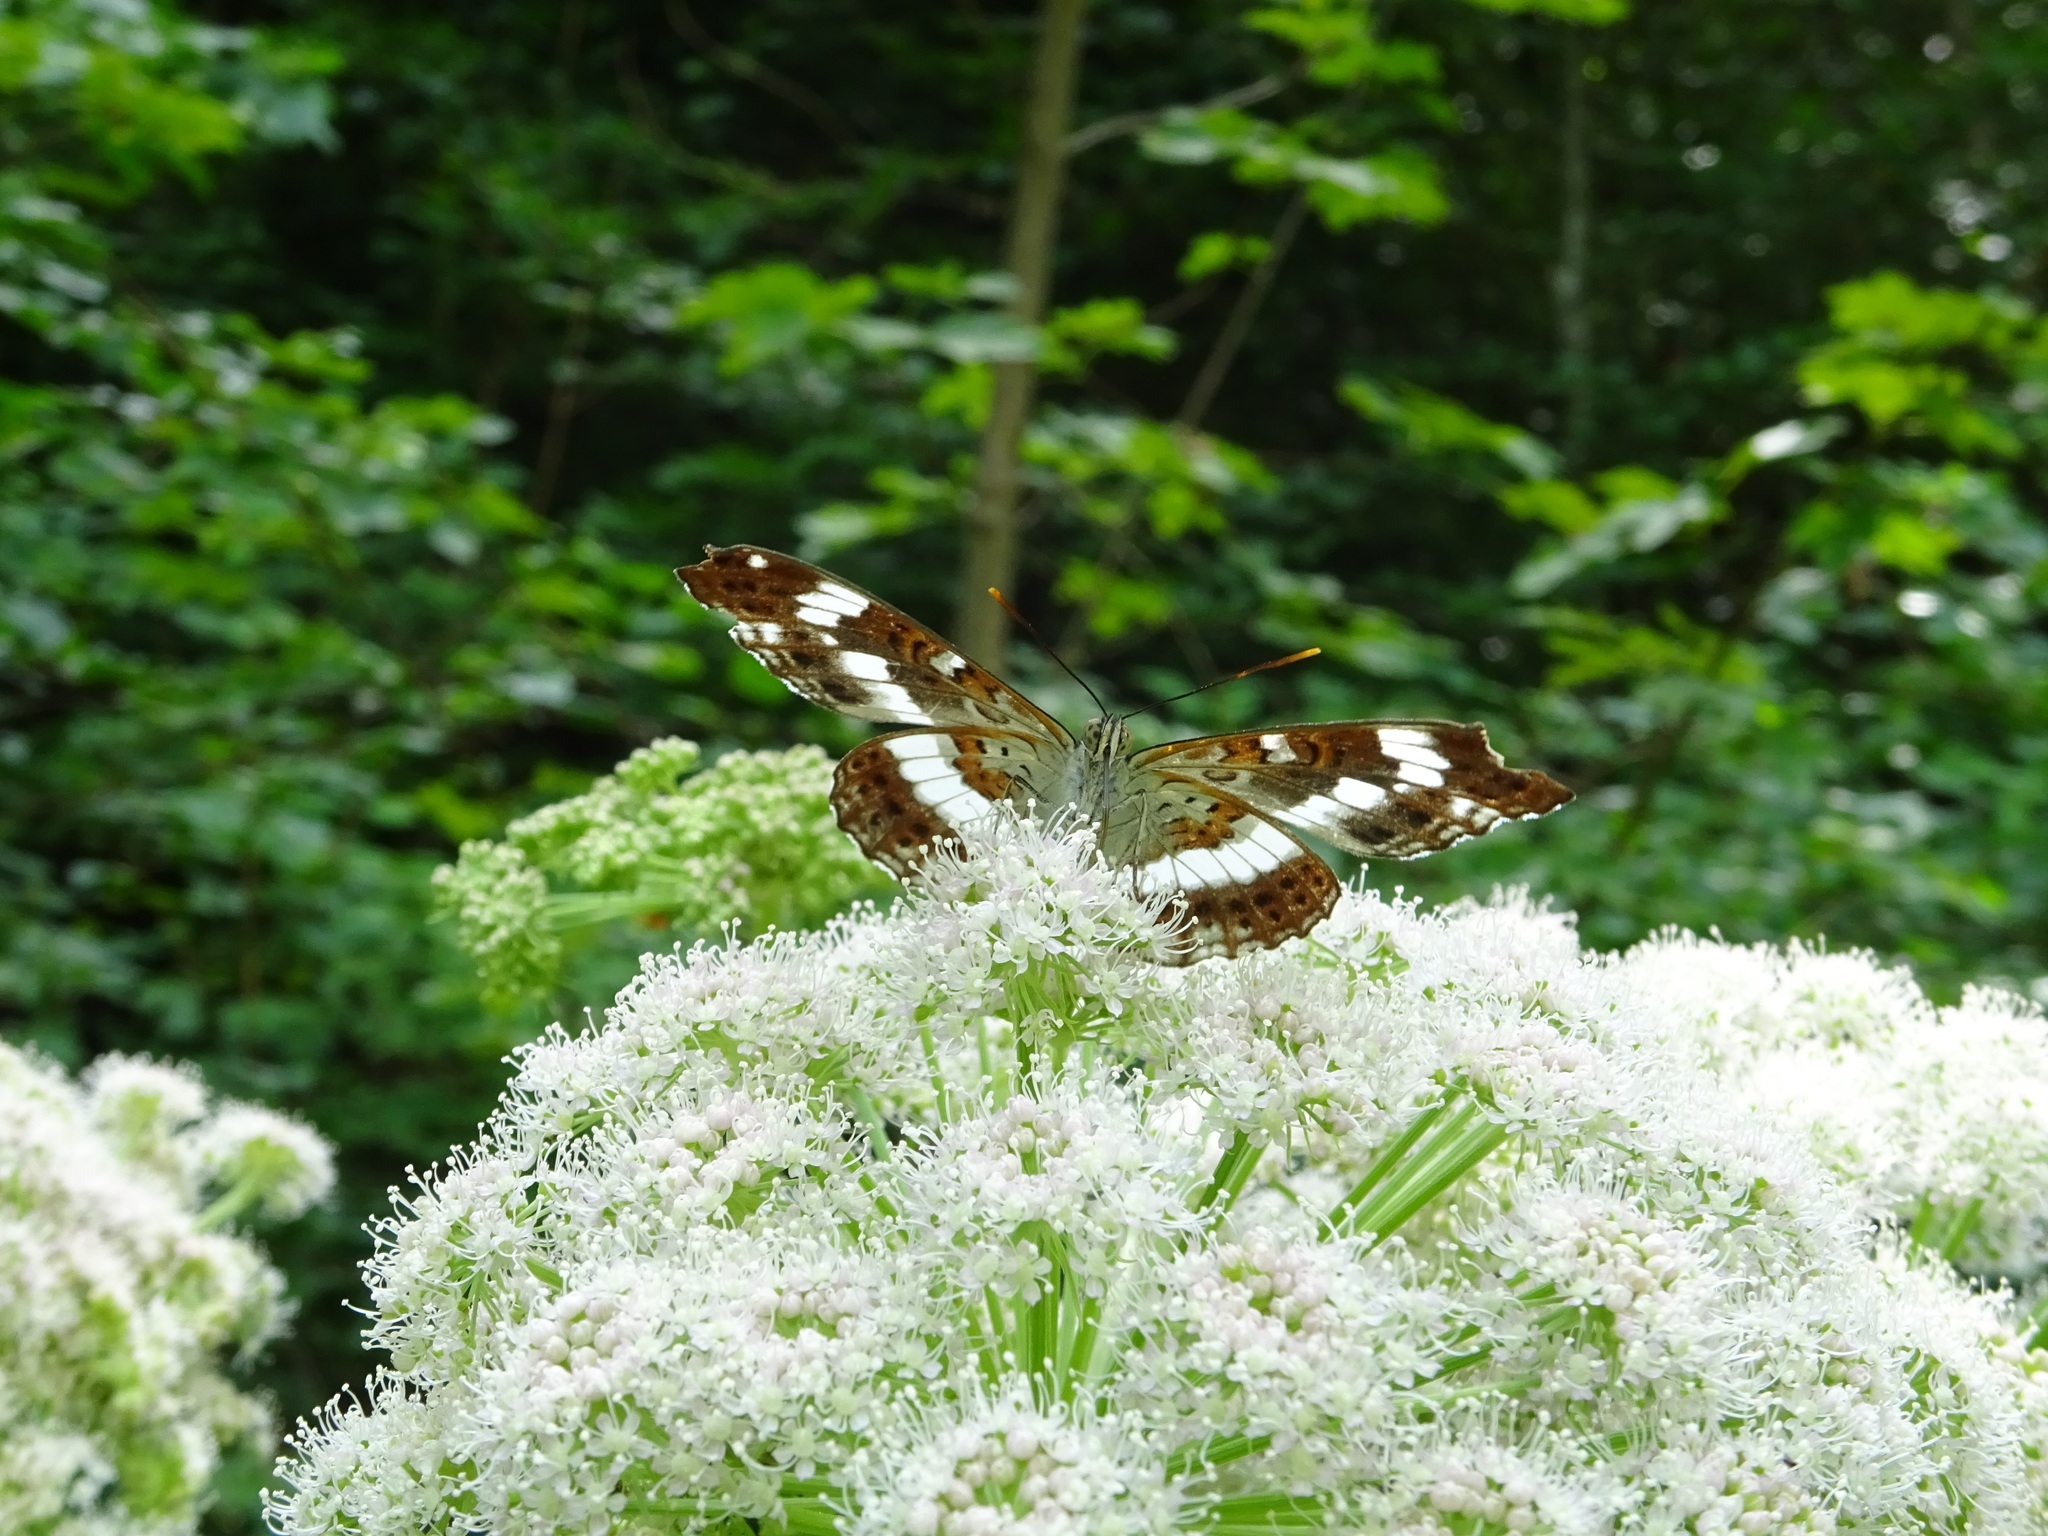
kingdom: Animalia
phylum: Arthropoda
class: Insecta
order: Lepidoptera
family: Nymphalidae
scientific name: Nymphalidae
